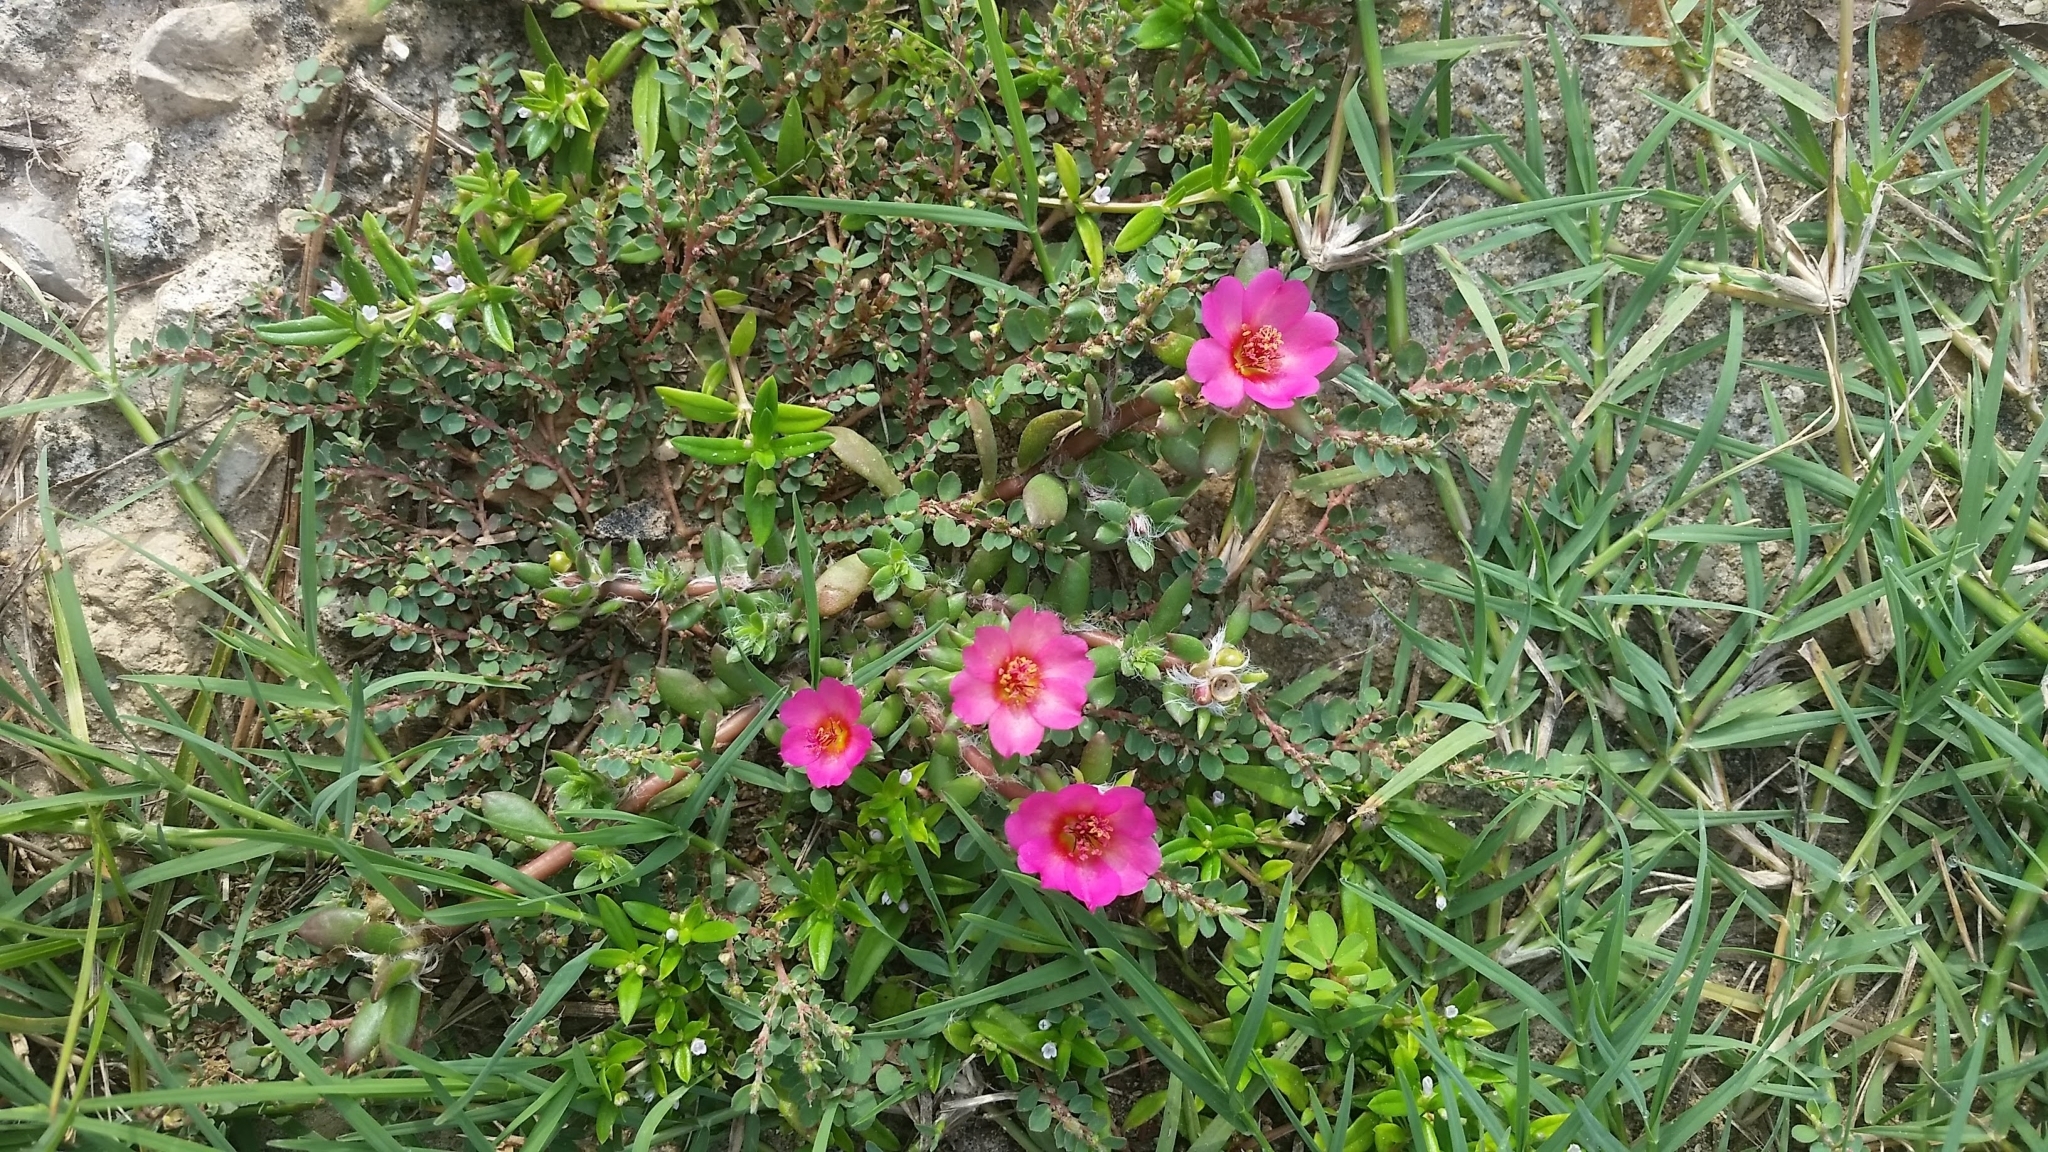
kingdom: Plantae
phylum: Tracheophyta
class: Magnoliopsida
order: Caryophyllales
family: Portulacaceae
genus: Portulaca
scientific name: Portulaca amilis
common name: Paraguayan purslane
